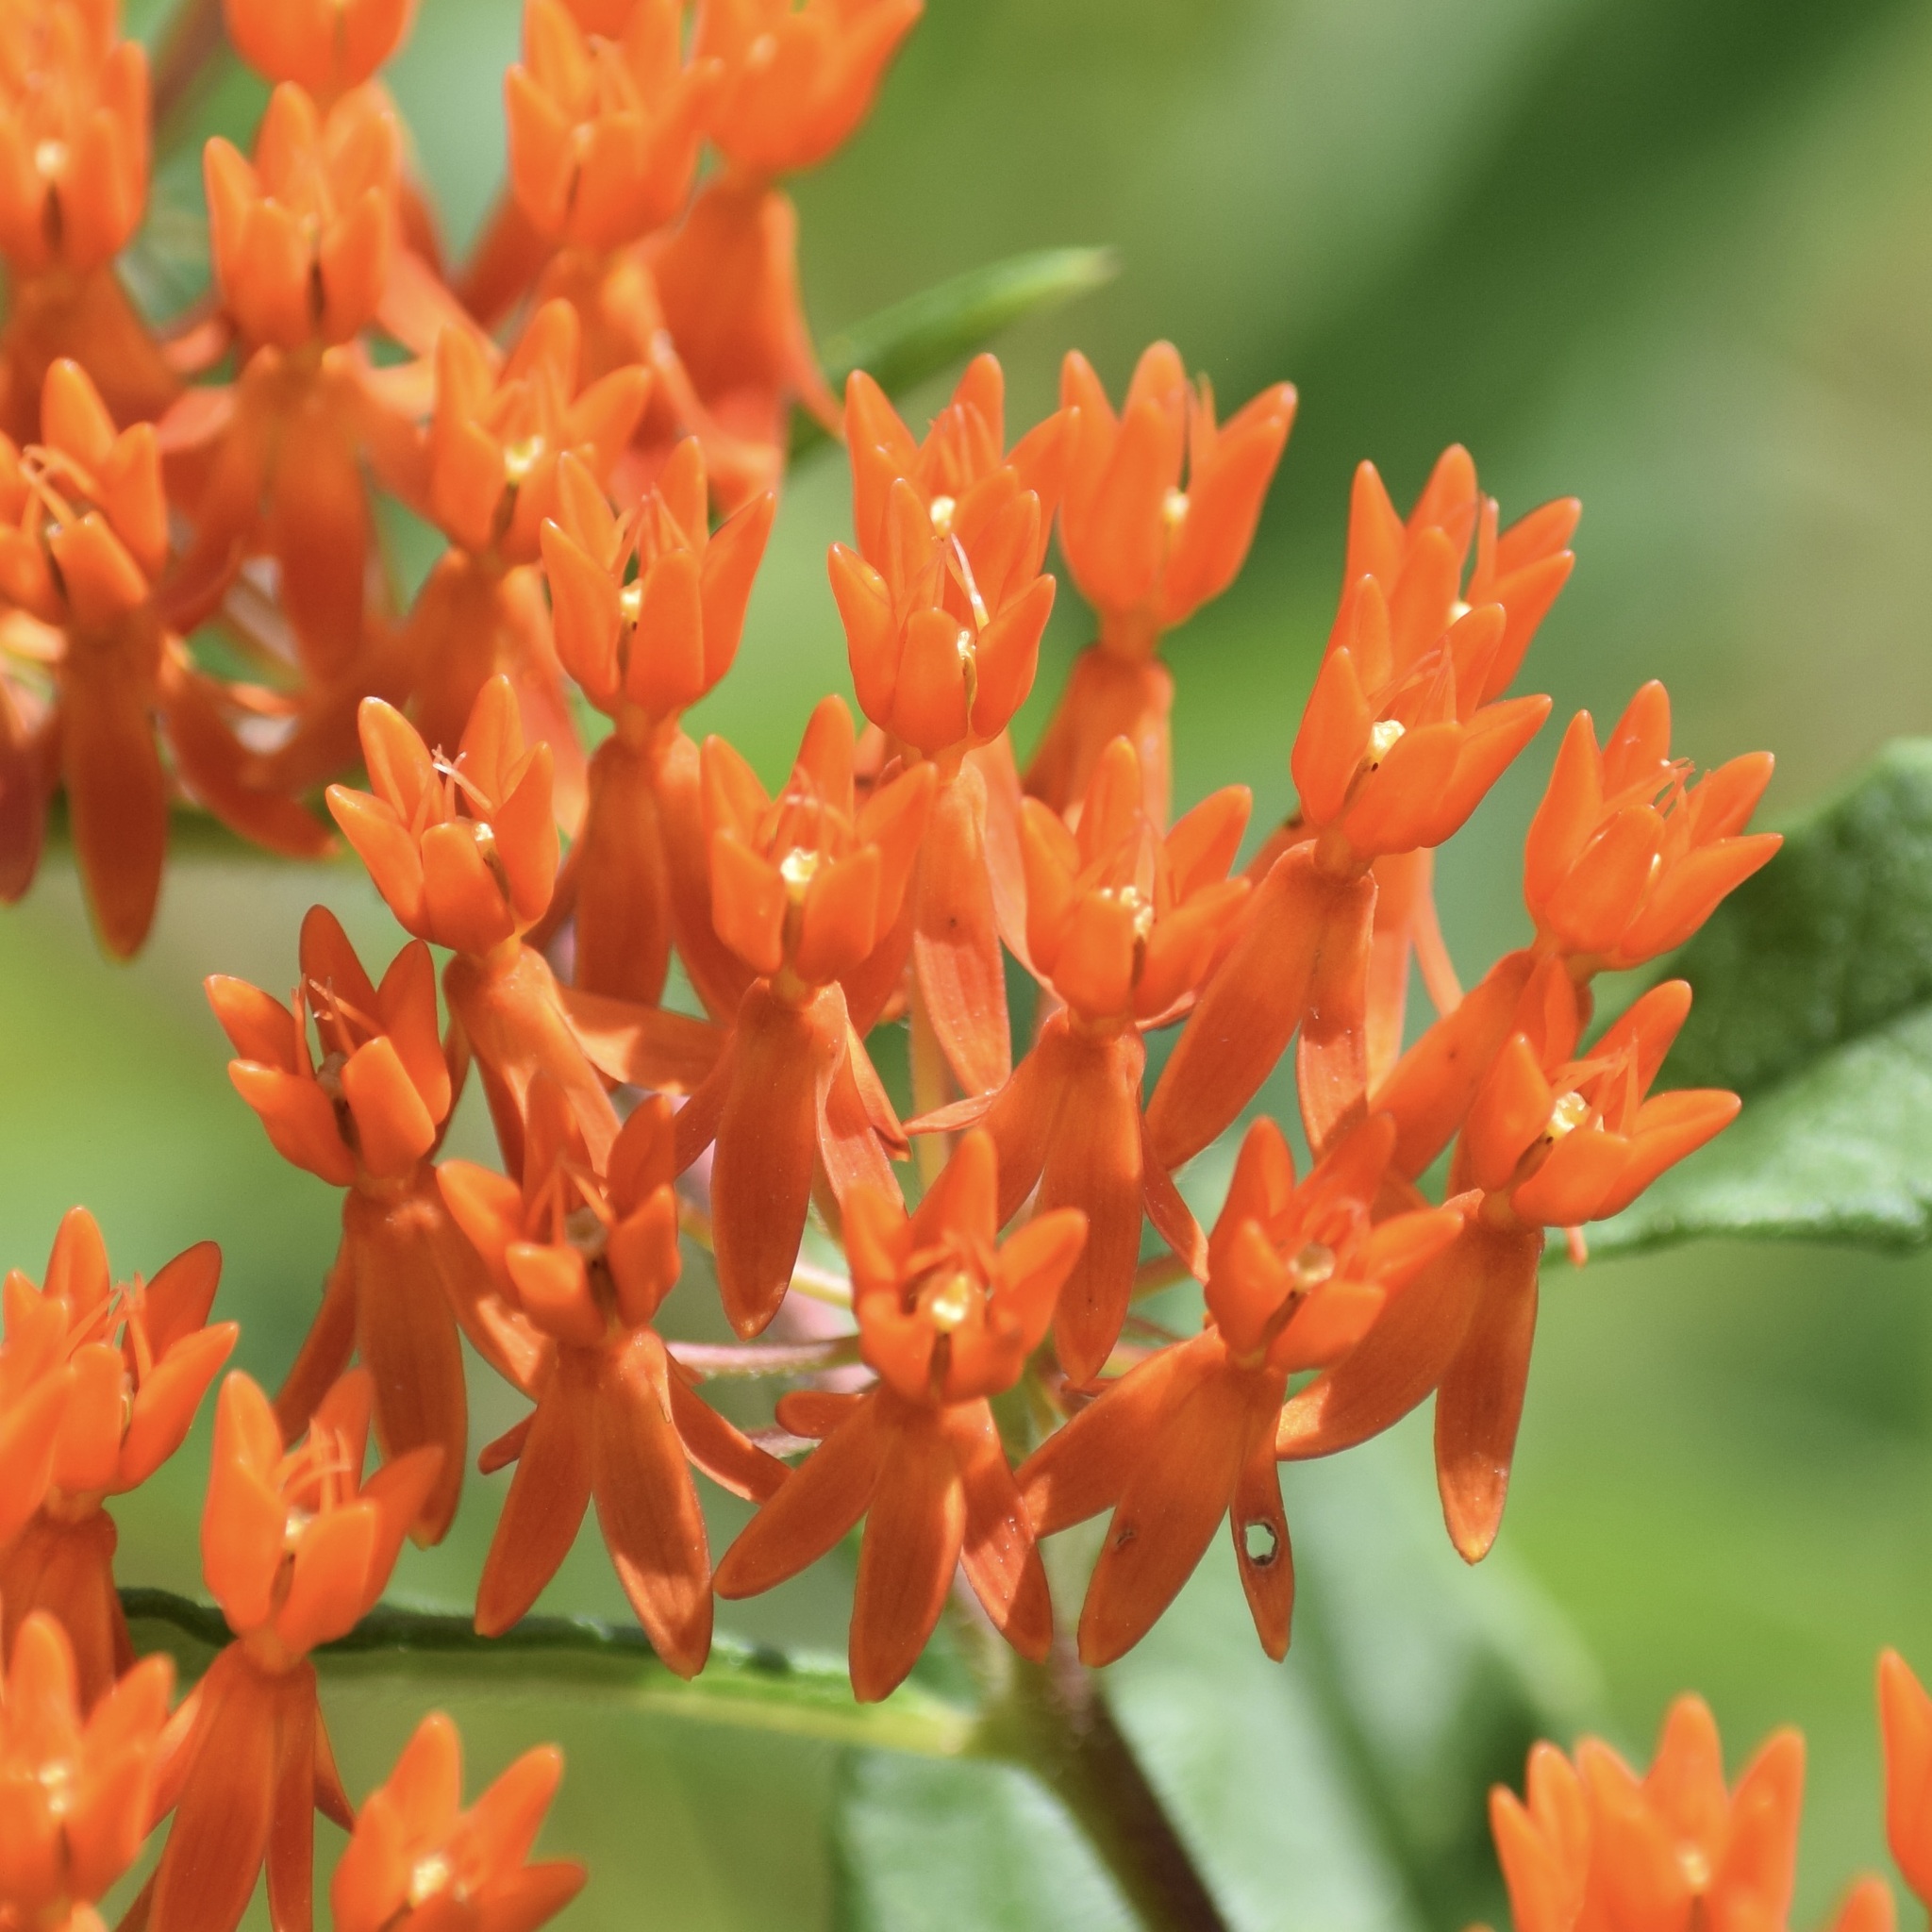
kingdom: Plantae
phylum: Tracheophyta
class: Magnoliopsida
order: Gentianales
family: Apocynaceae
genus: Asclepias
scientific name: Asclepias tuberosa
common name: Butterfly milkweed
